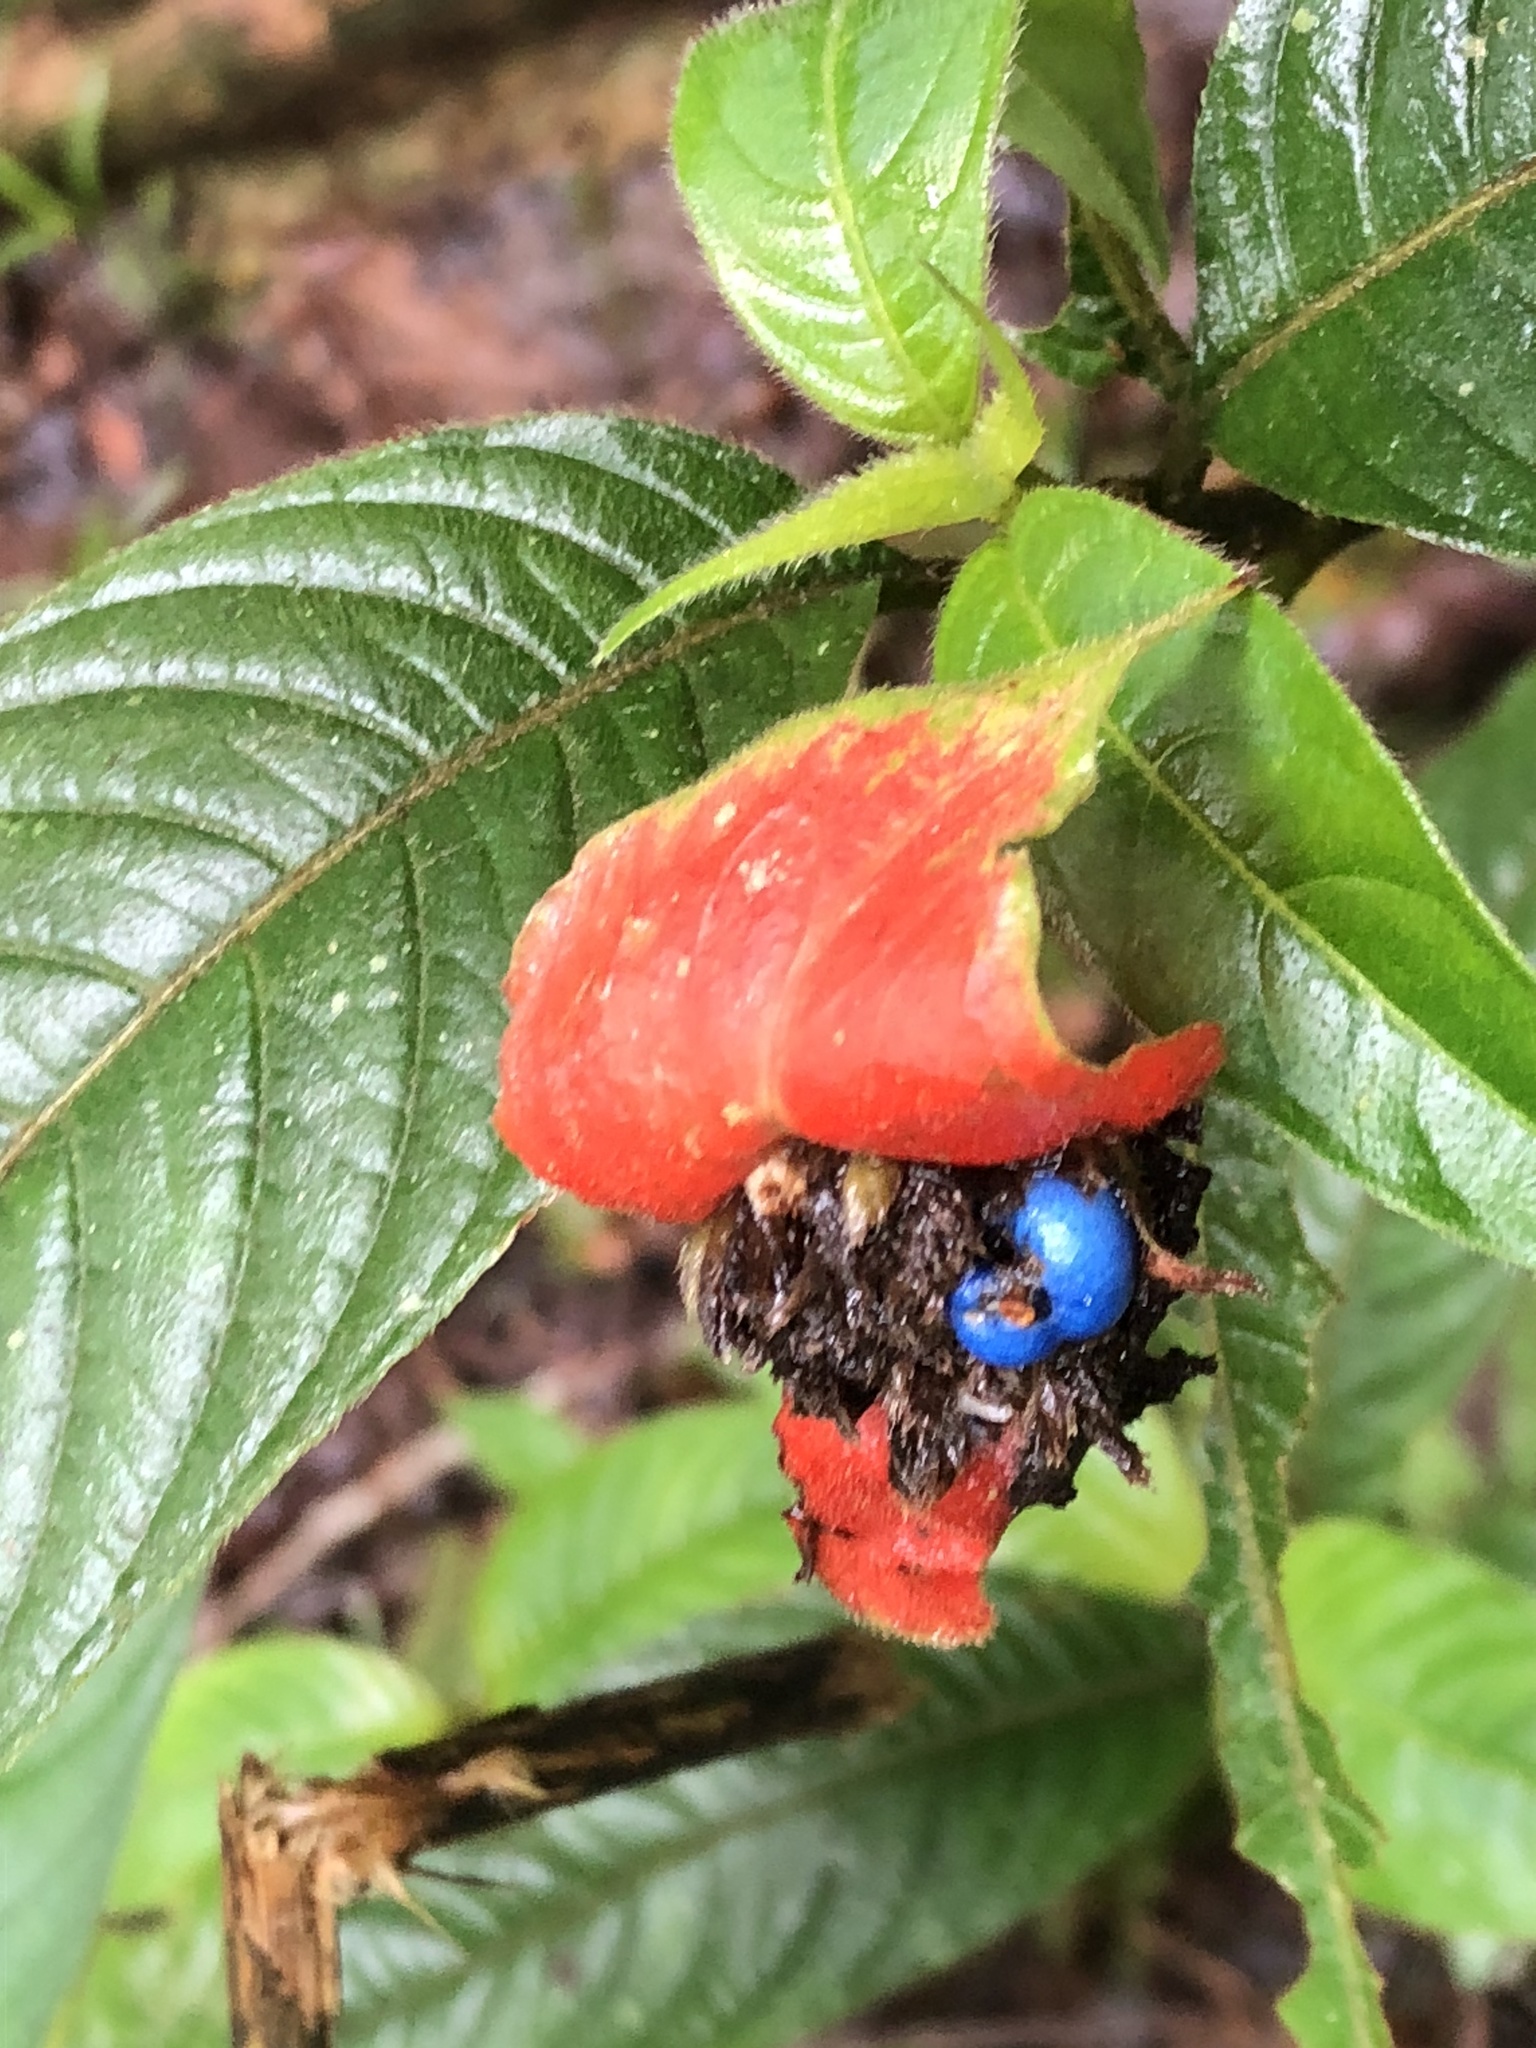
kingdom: Plantae
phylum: Tracheophyta
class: Magnoliopsida
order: Gentianales
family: Rubiaceae
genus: Palicourea
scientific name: Palicourea tomentosa
